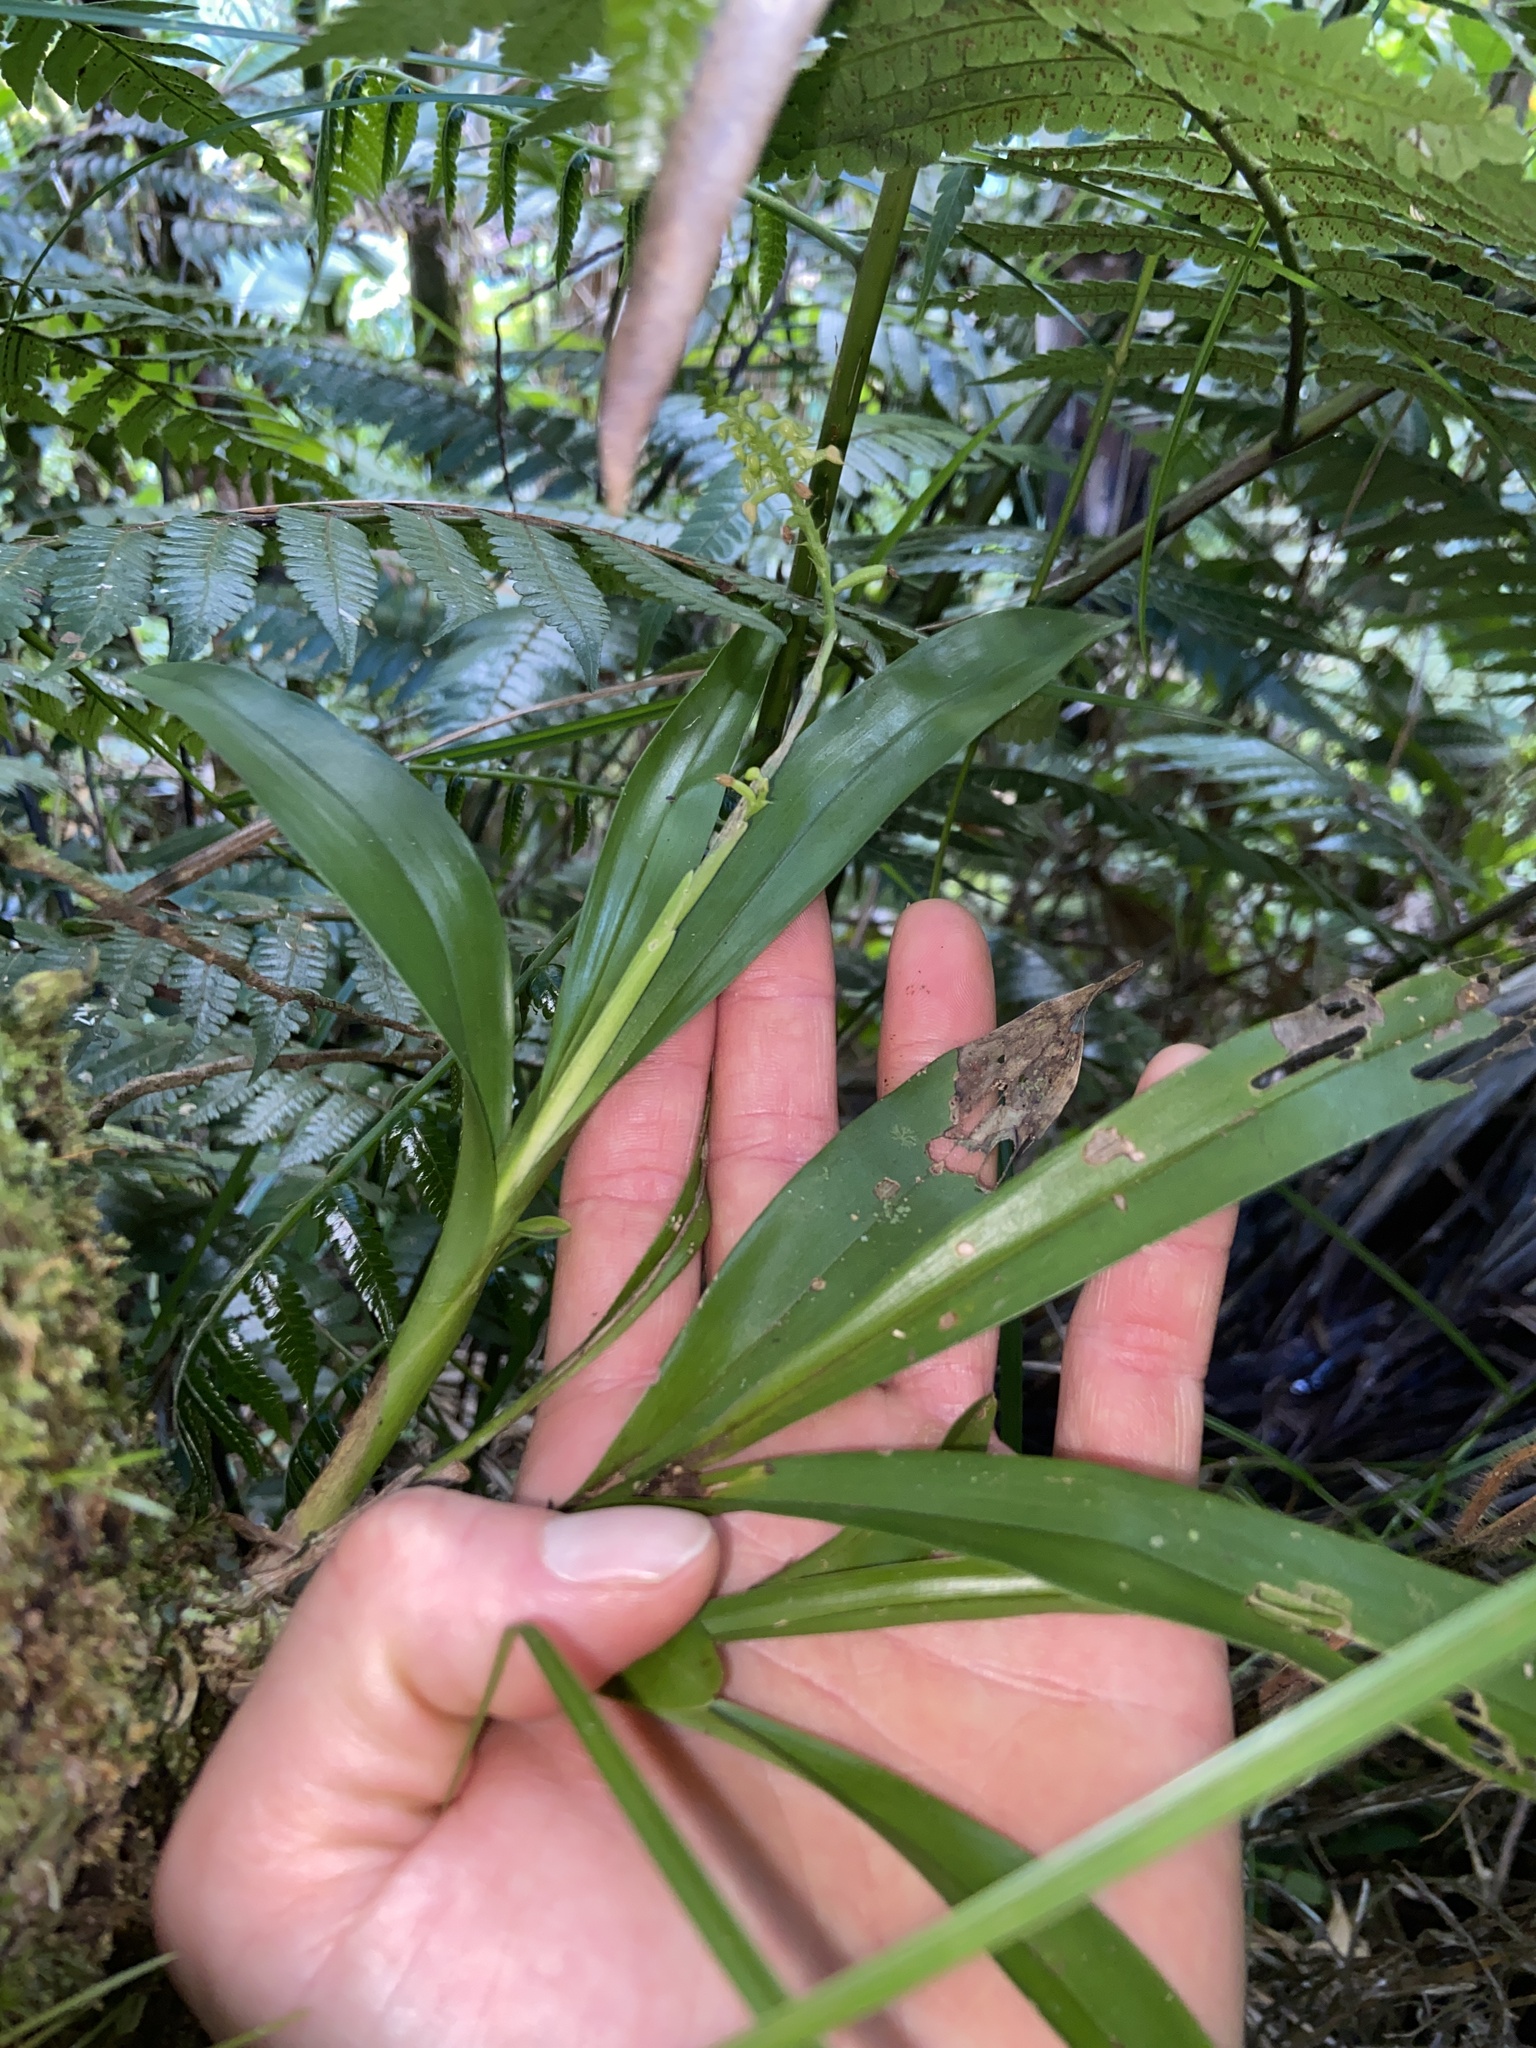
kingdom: Plantae
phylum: Tracheophyta
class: Liliopsida
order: Asparagales
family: Orchidaceae
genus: Polystachya
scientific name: Polystachya concreta
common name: Greater yellowspike orchid
